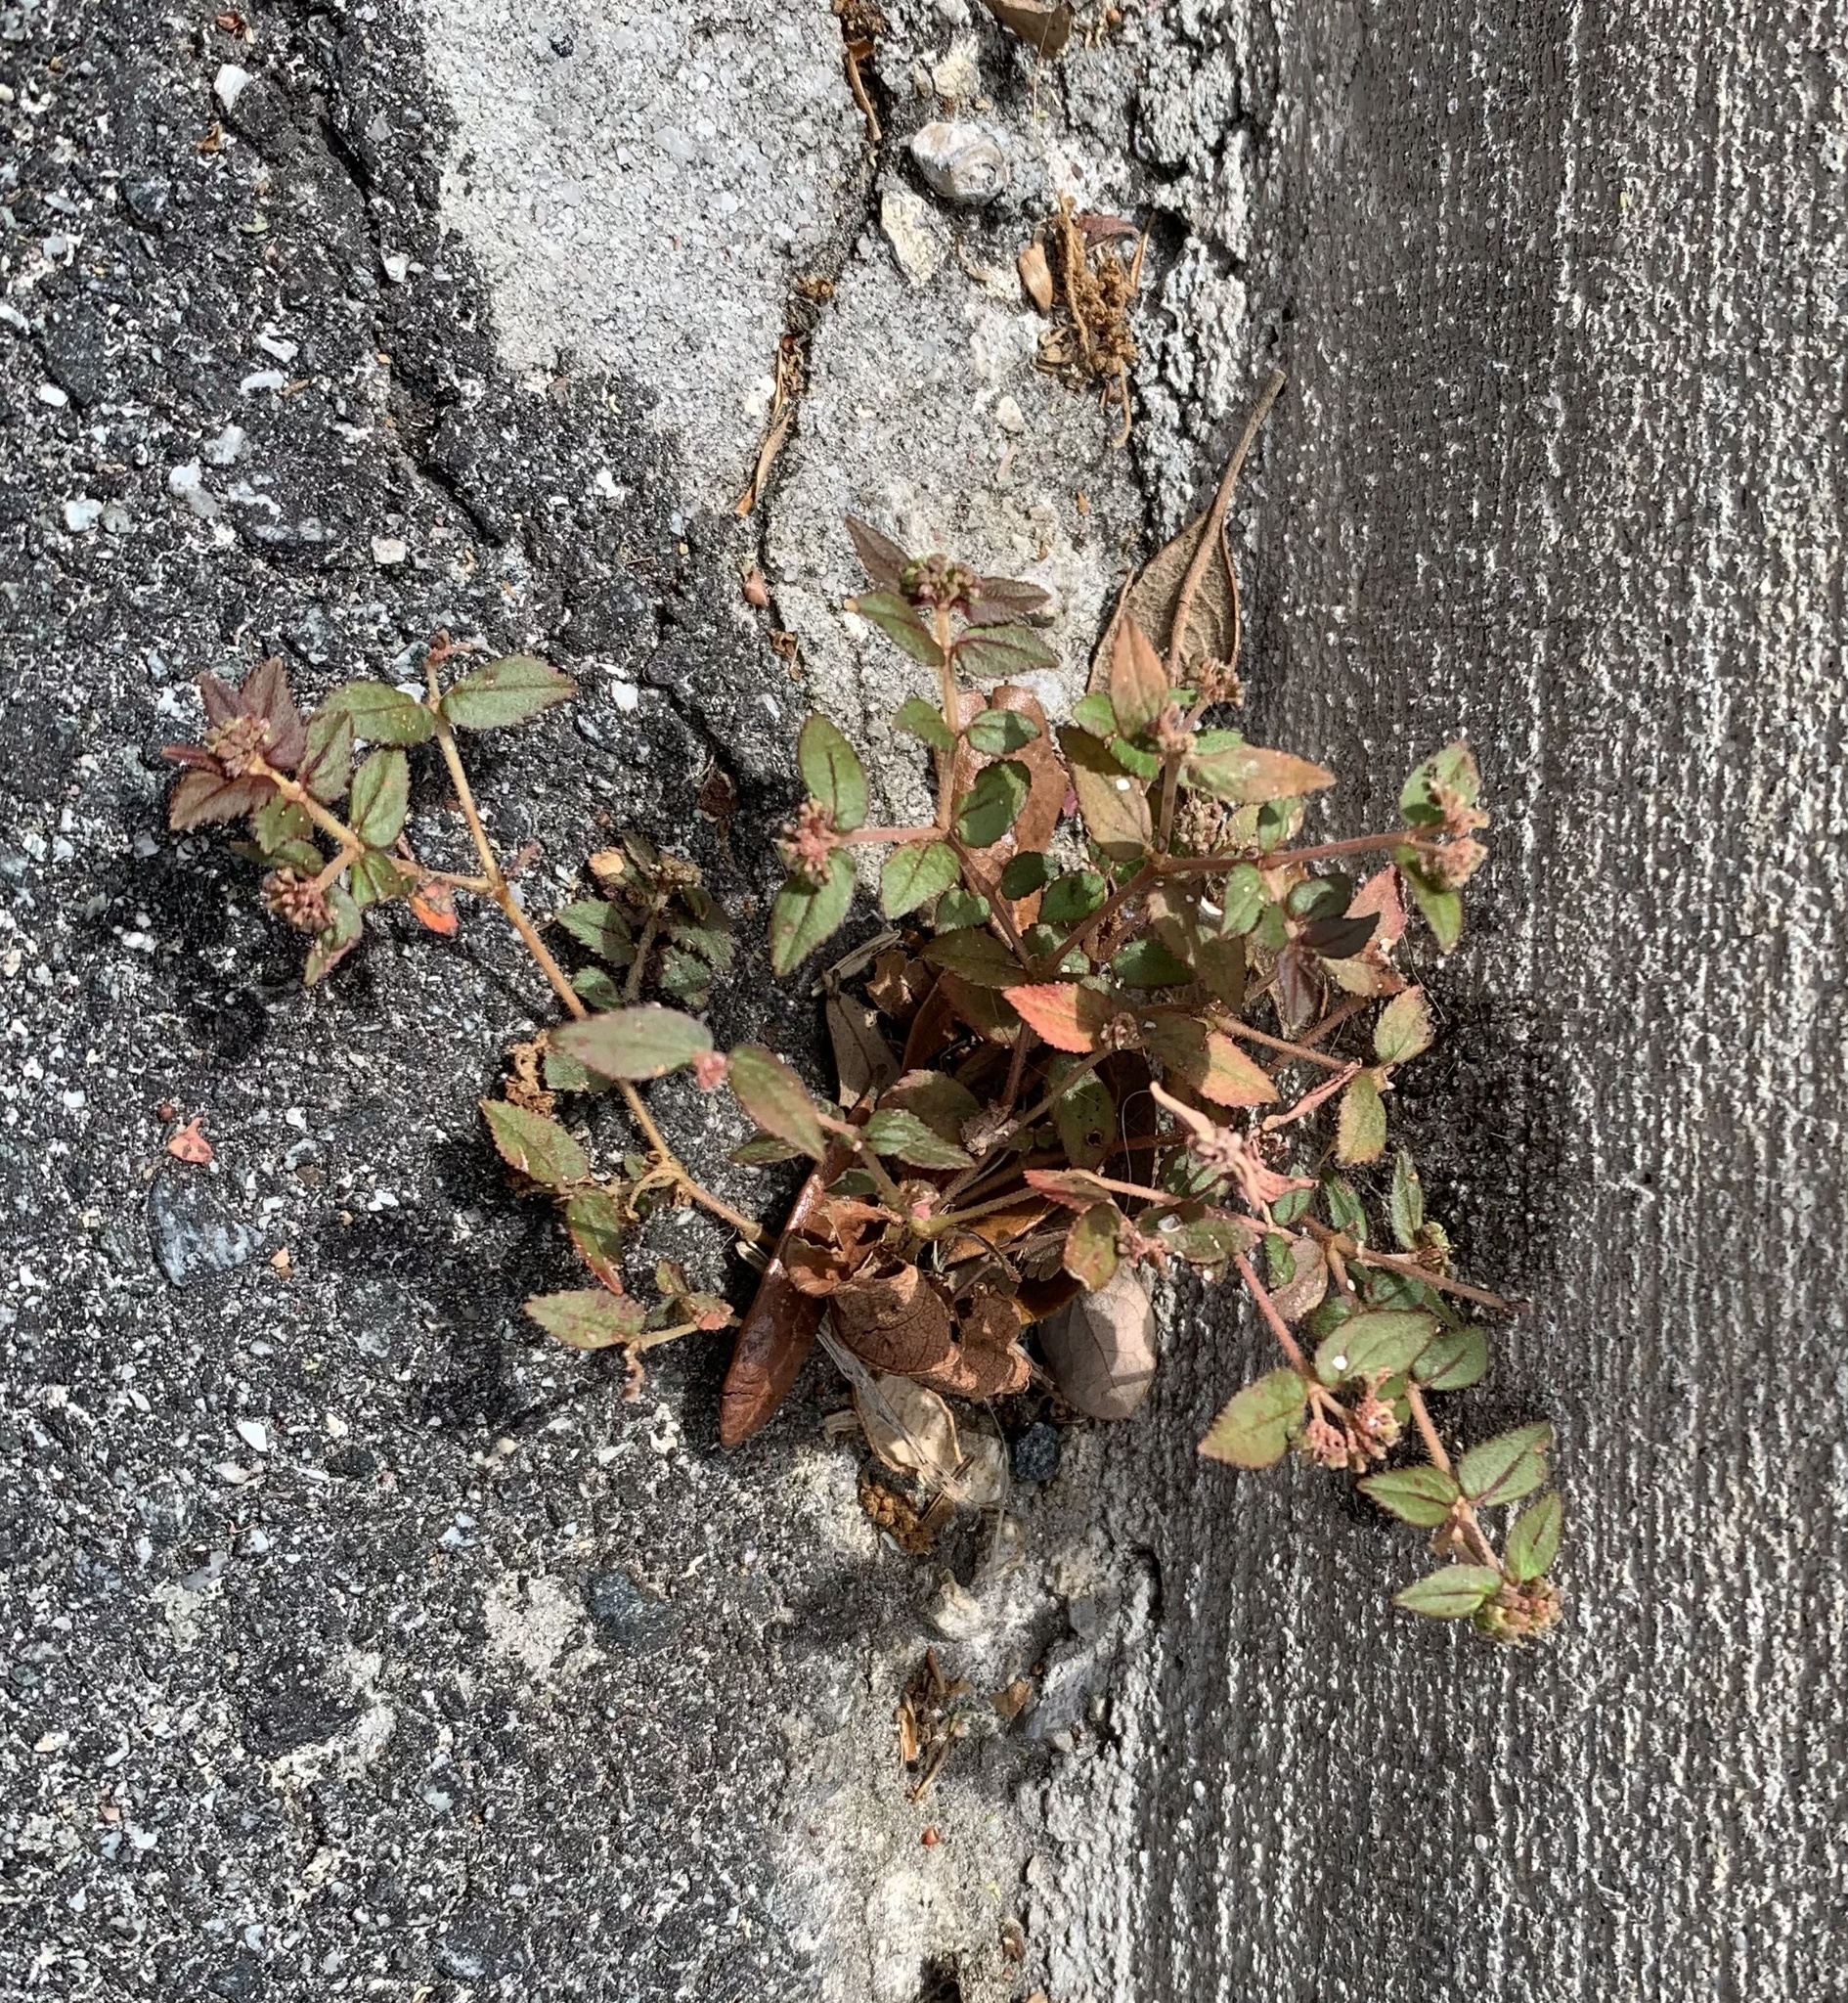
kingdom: Plantae
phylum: Tracheophyta
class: Magnoliopsida
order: Malpighiales
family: Euphorbiaceae
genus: Euphorbia
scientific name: Euphorbia ophthalmica
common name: Florida hammock sandmat
